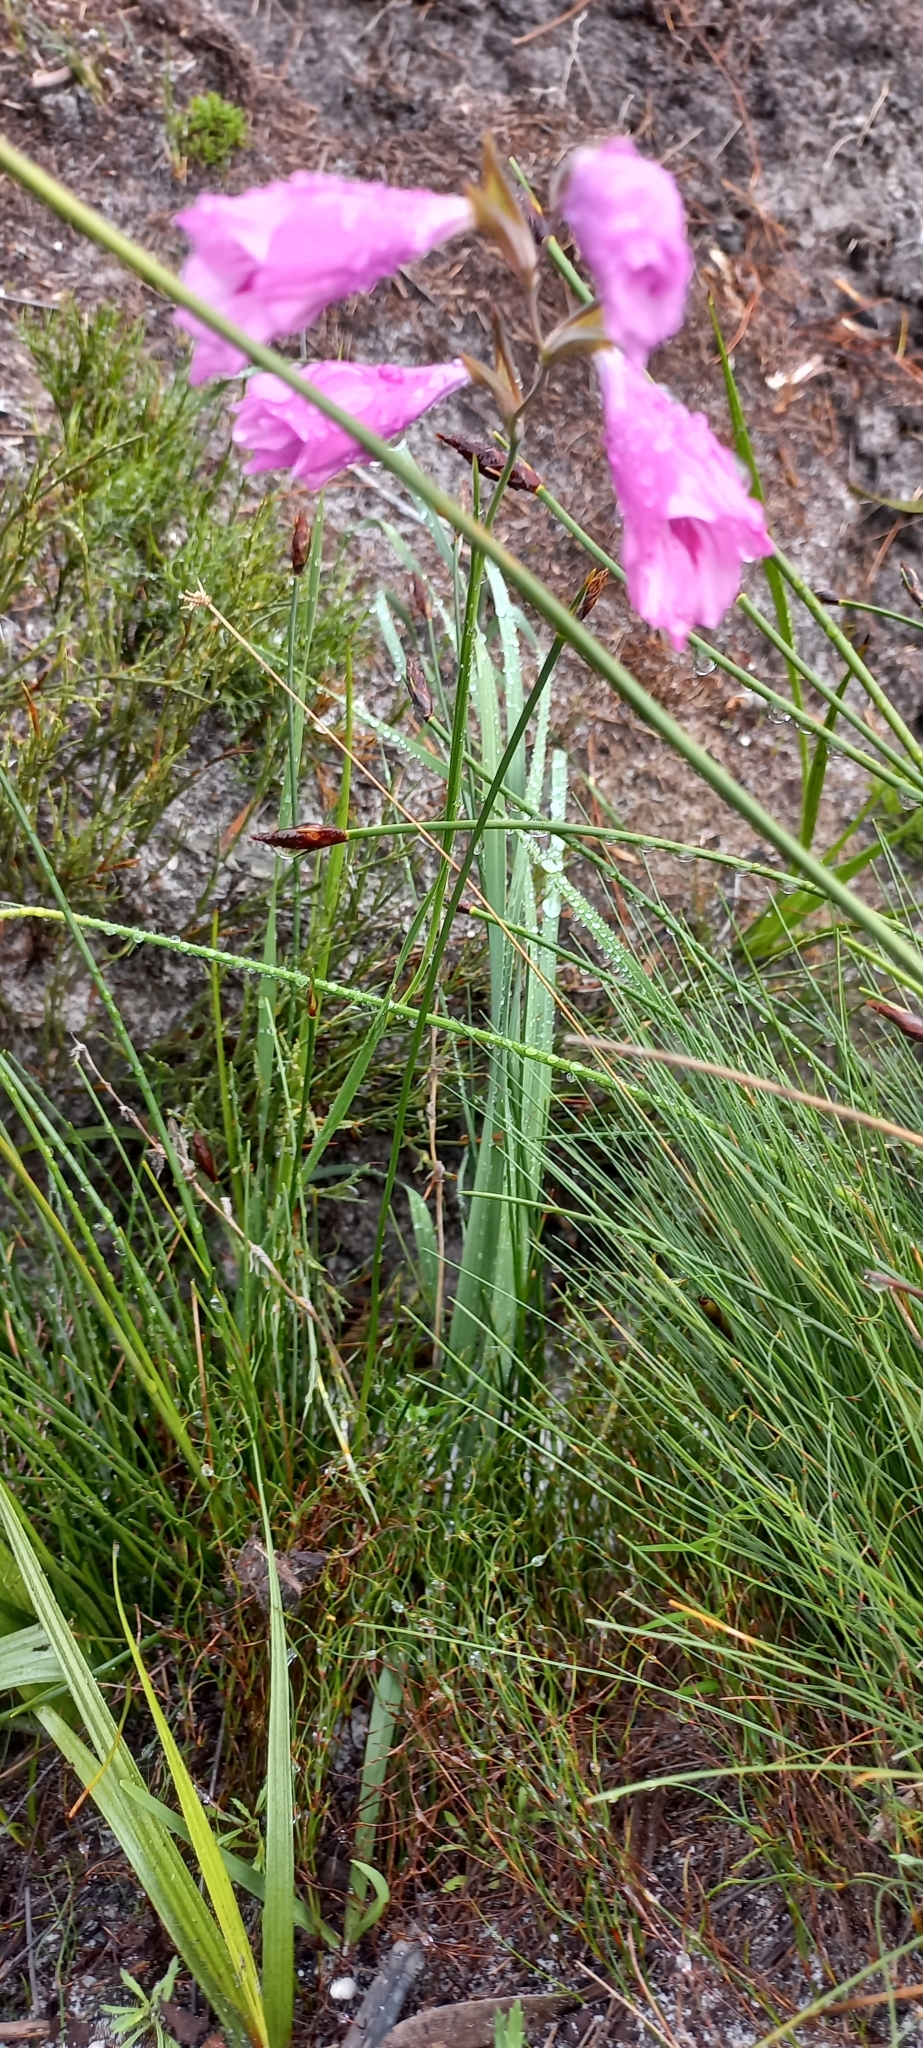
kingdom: Plantae
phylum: Tracheophyta
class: Liliopsida
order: Asparagales
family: Iridaceae
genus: Gladiolus
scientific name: Gladiolus hirsutus
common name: Small pink afrikaner
